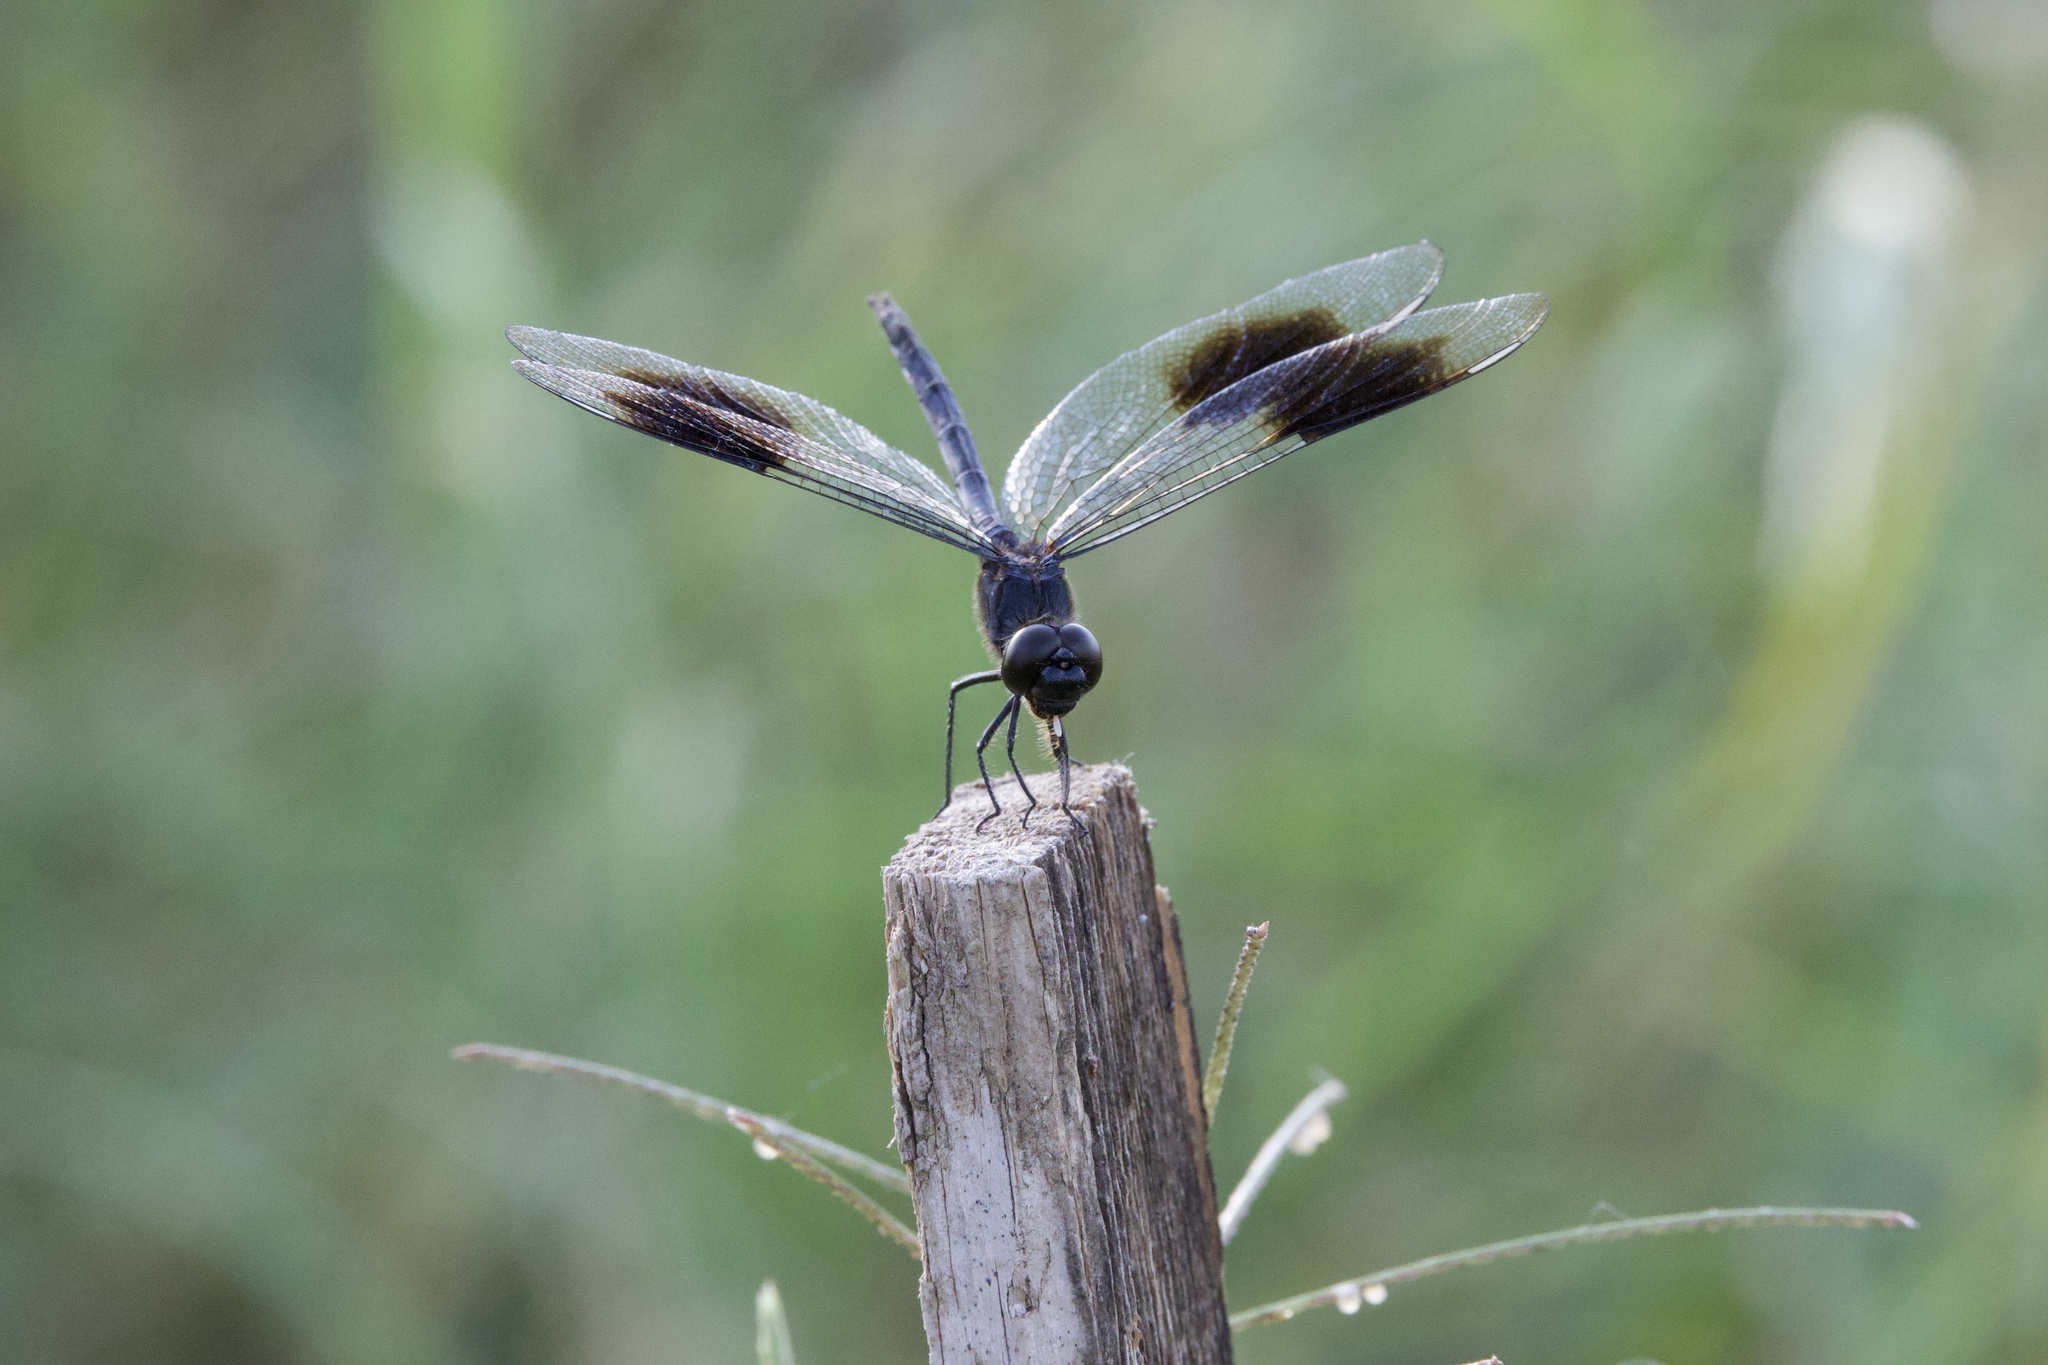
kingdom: Animalia
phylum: Arthropoda
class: Insecta
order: Odonata
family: Libellulidae
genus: Brachymesia
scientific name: Brachymesia gravida
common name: Four-spotted pennant
